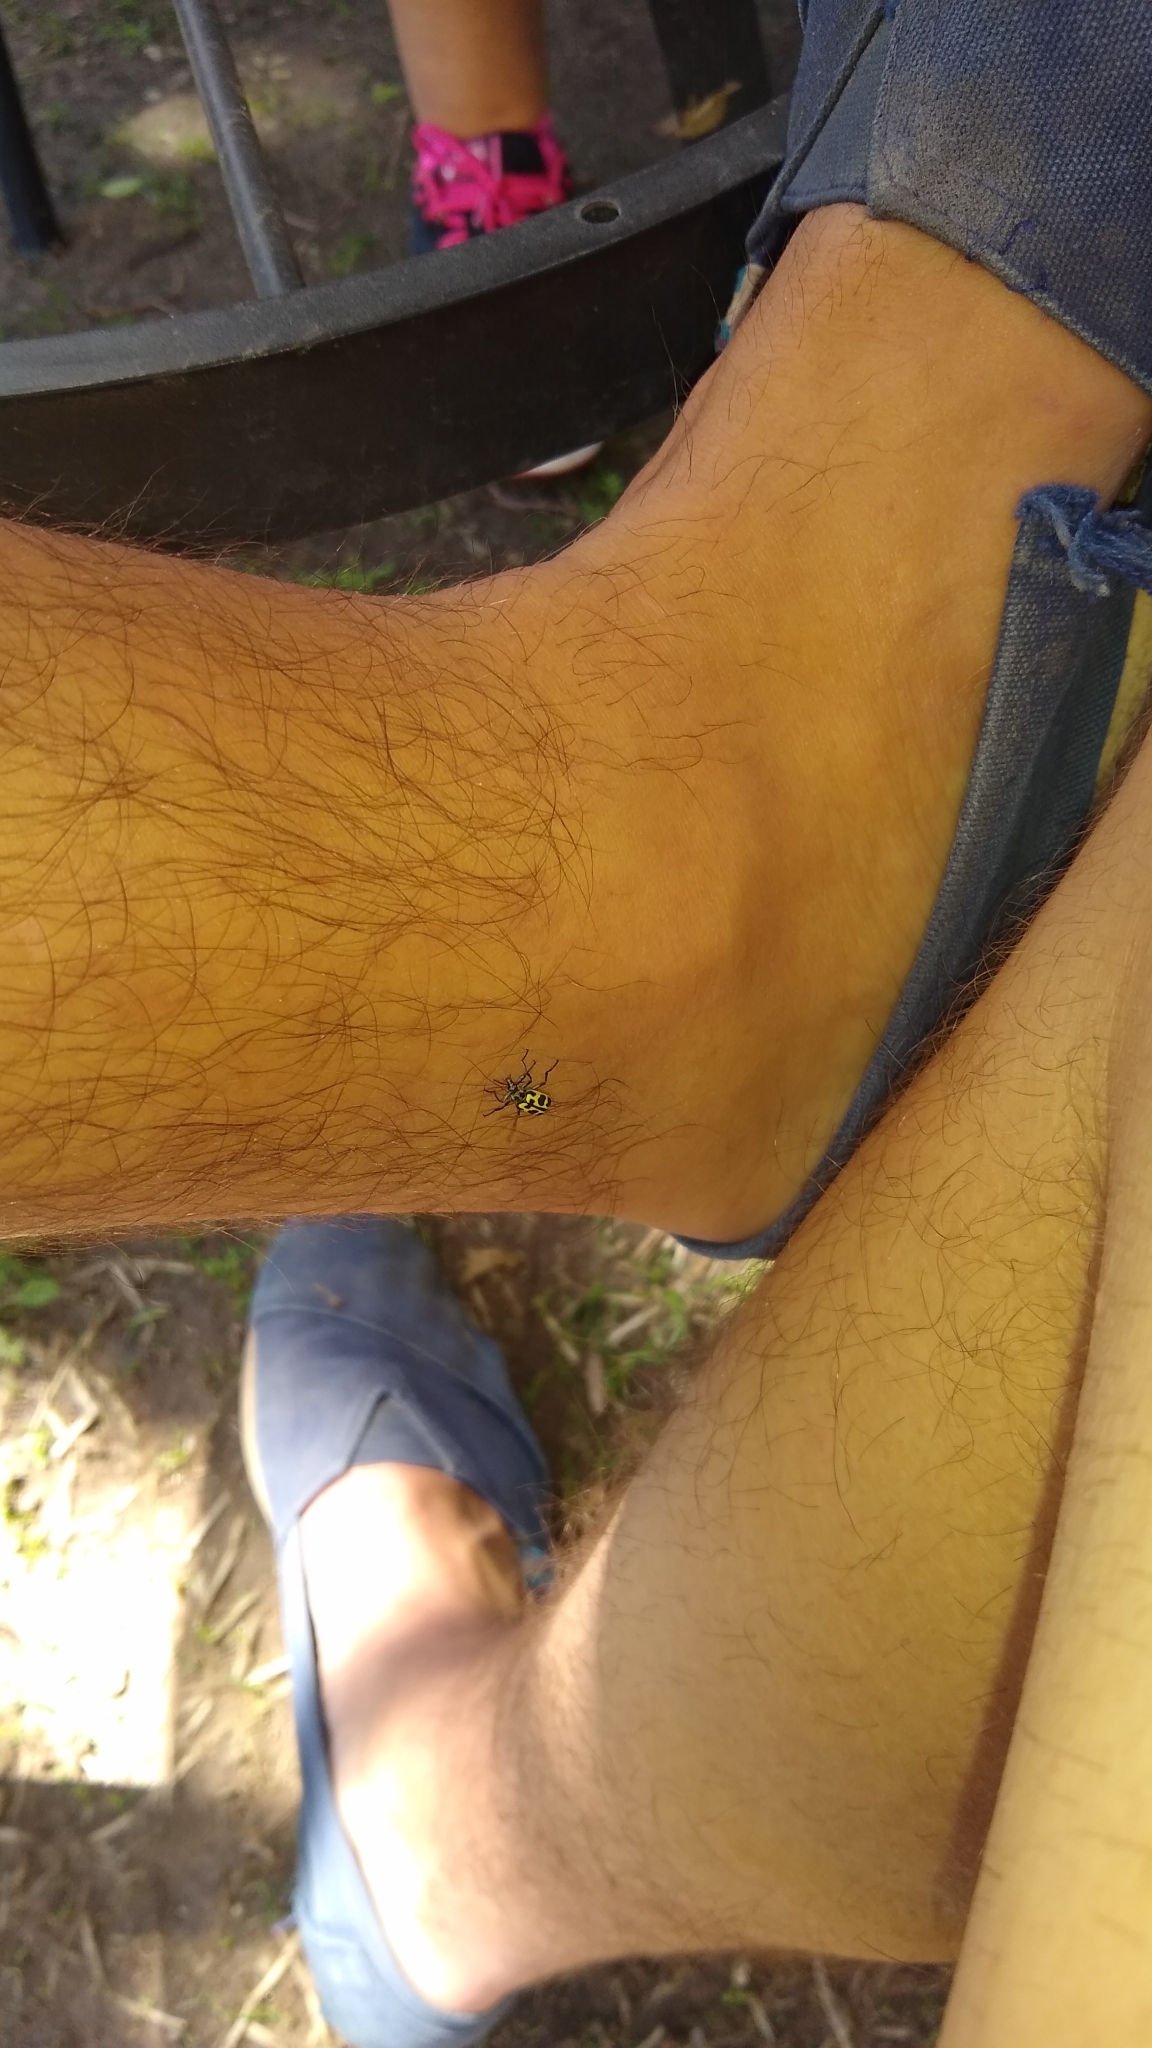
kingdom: Animalia
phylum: Arthropoda
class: Insecta
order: Coleoptera
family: Melyridae
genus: Astylus
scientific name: Astylus atromaculatus
